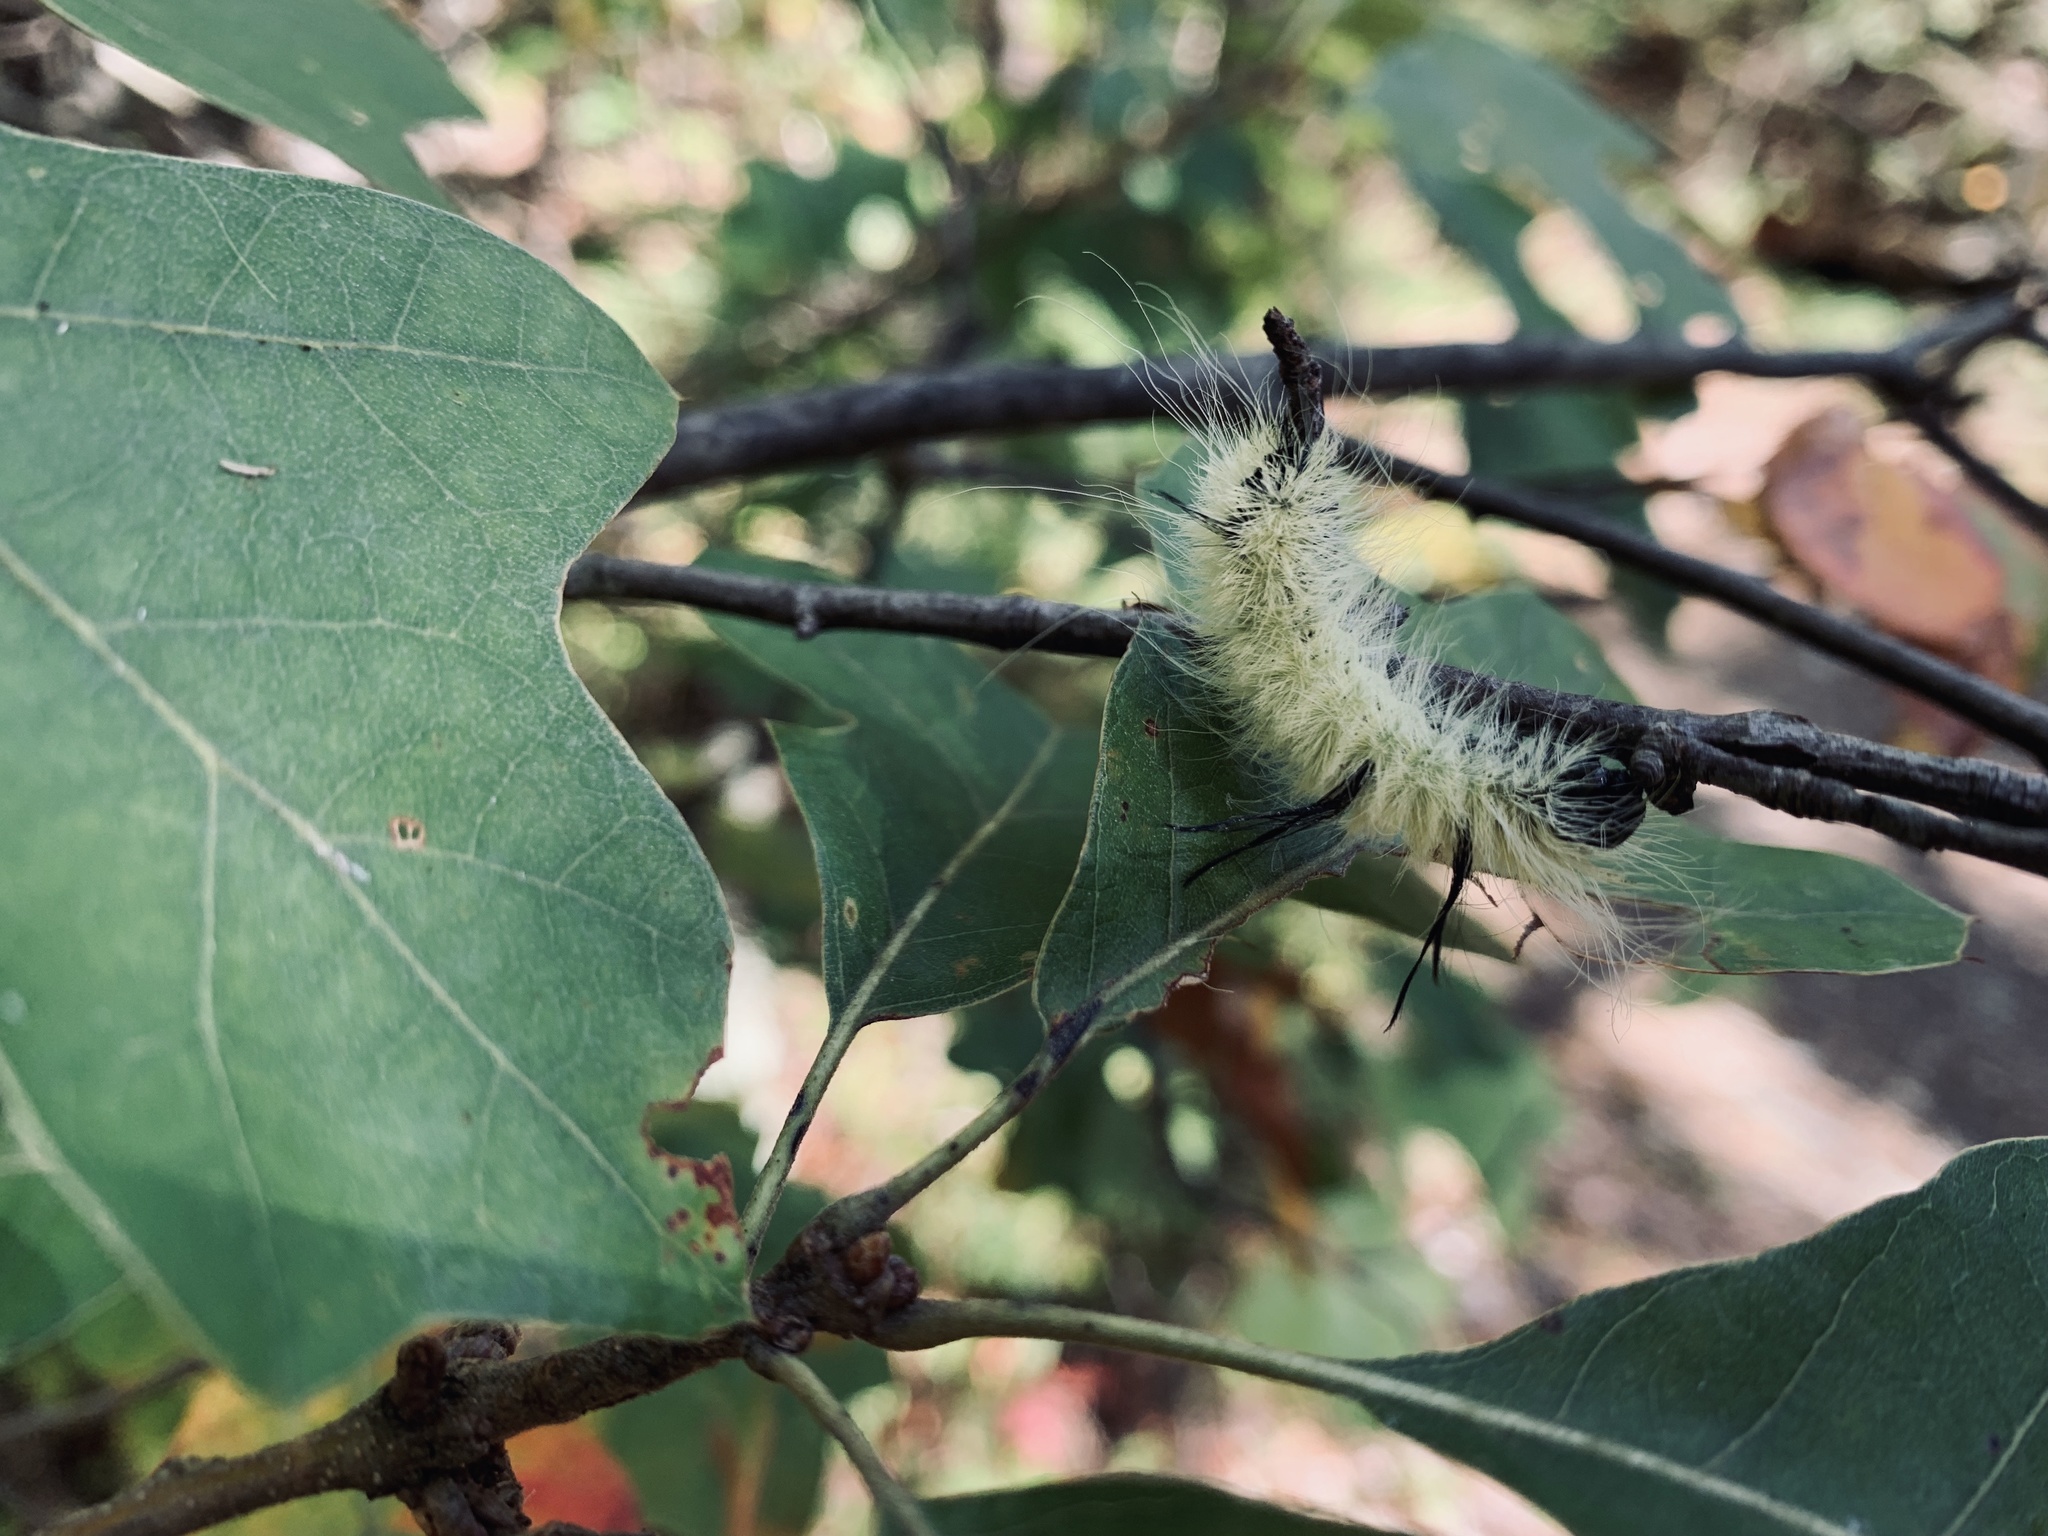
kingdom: Animalia
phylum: Arthropoda
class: Insecta
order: Lepidoptera
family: Noctuidae
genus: Acronicta
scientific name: Acronicta americana
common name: American dagger
